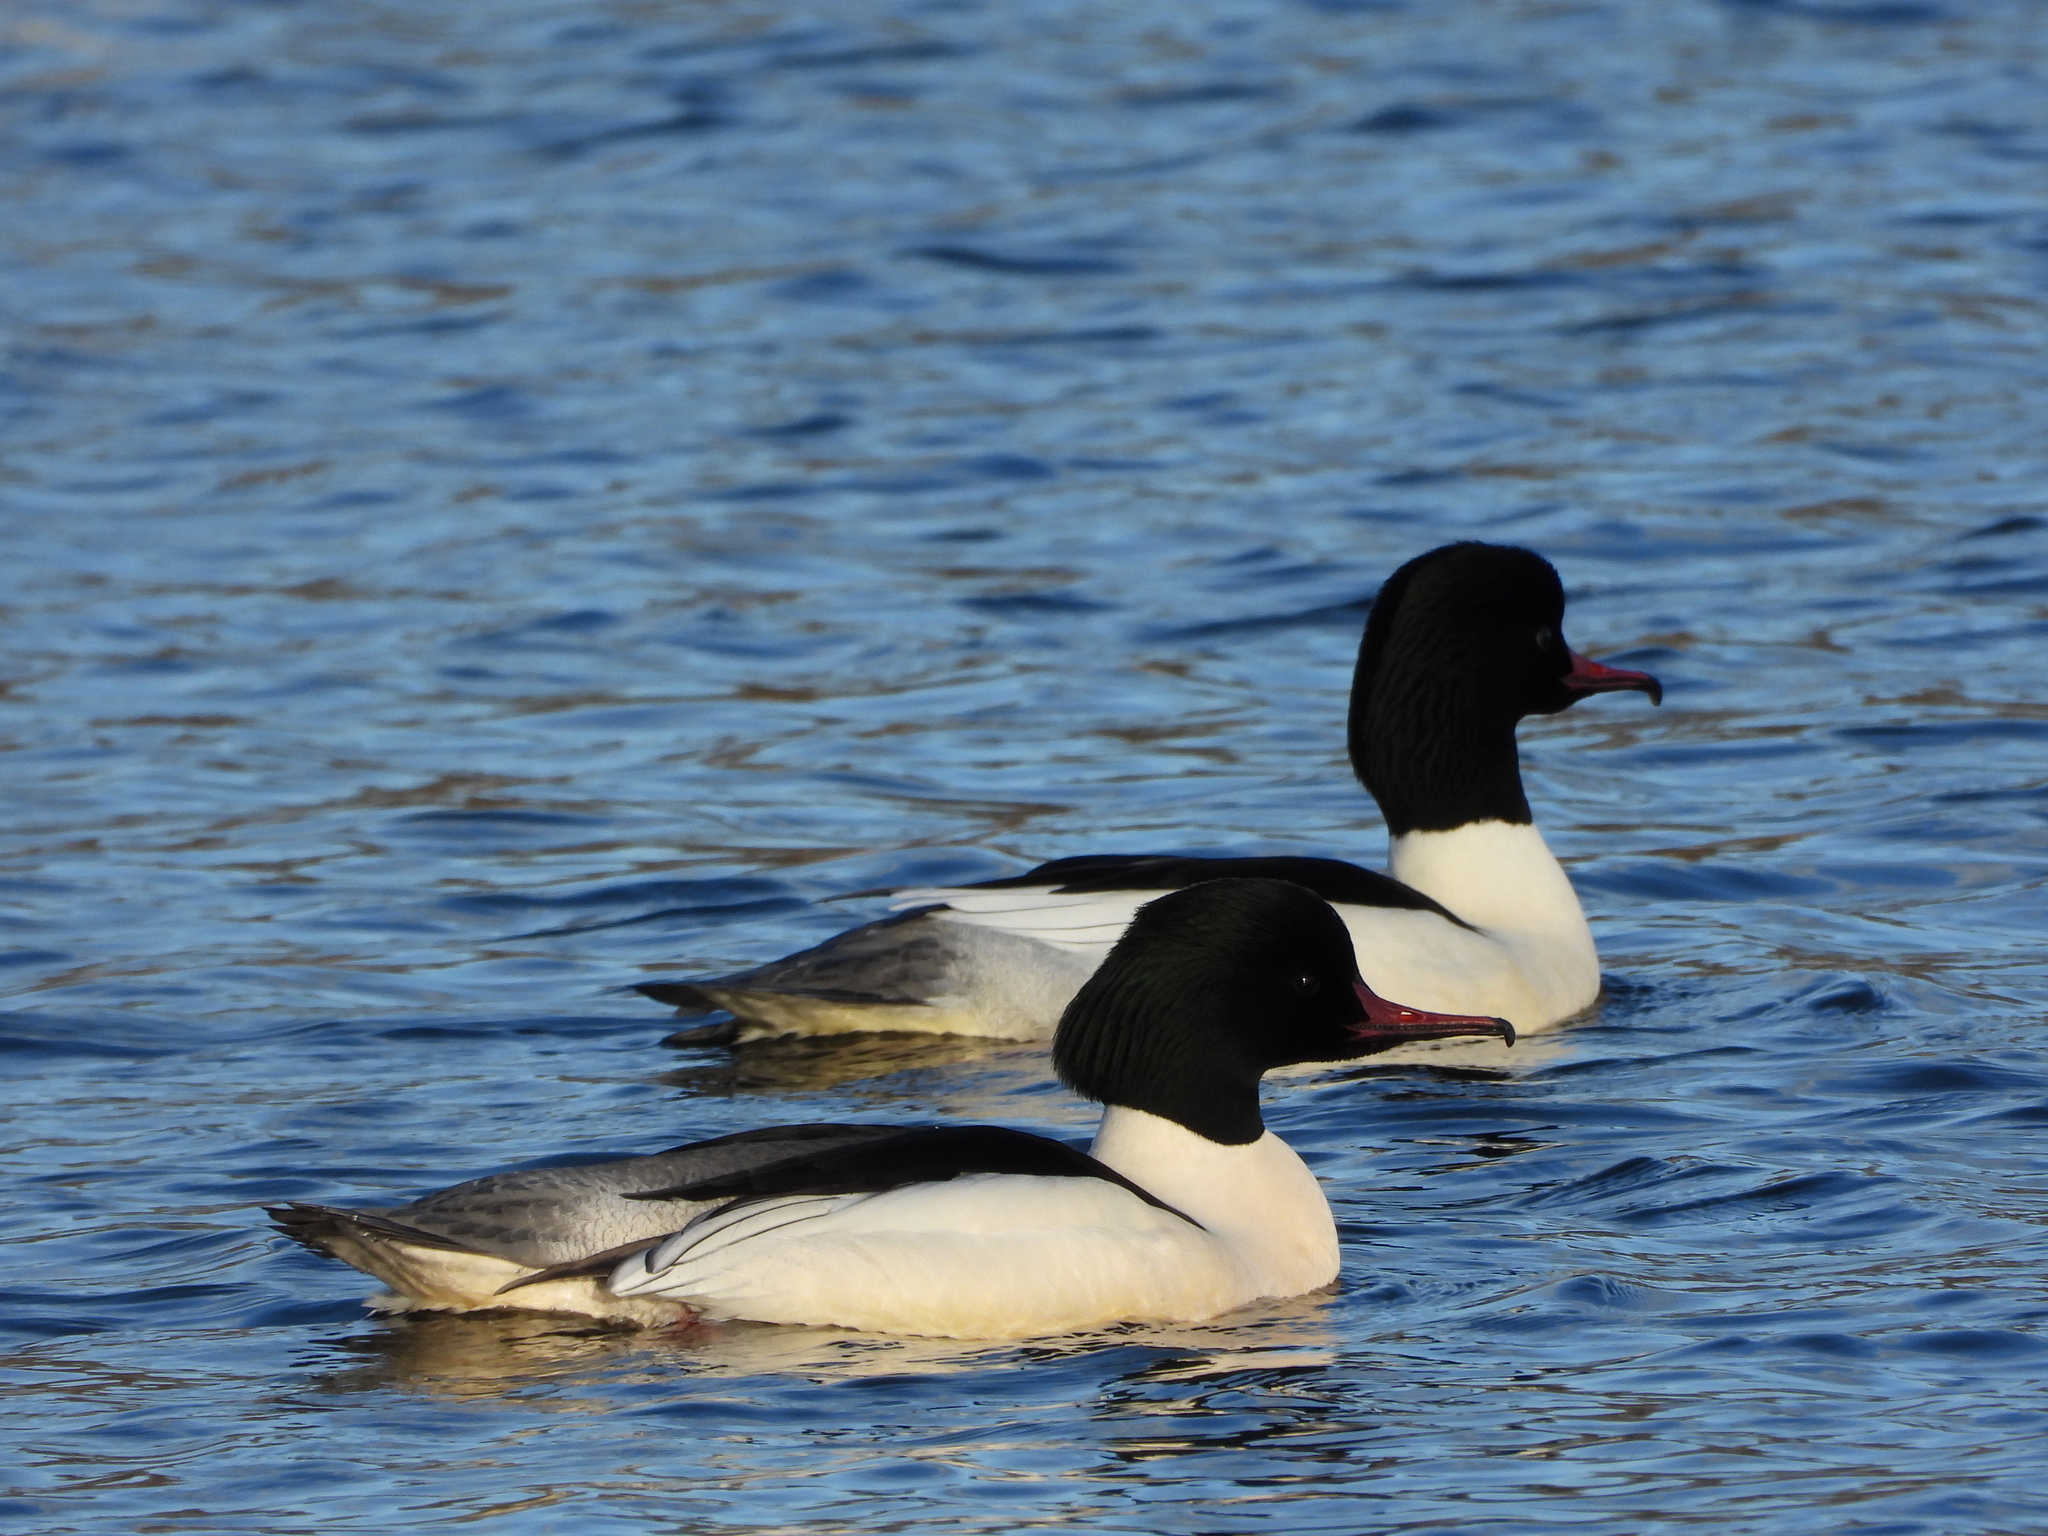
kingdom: Animalia
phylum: Chordata
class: Aves
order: Anseriformes
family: Anatidae
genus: Mergus
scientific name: Mergus merganser
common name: Common merganser
